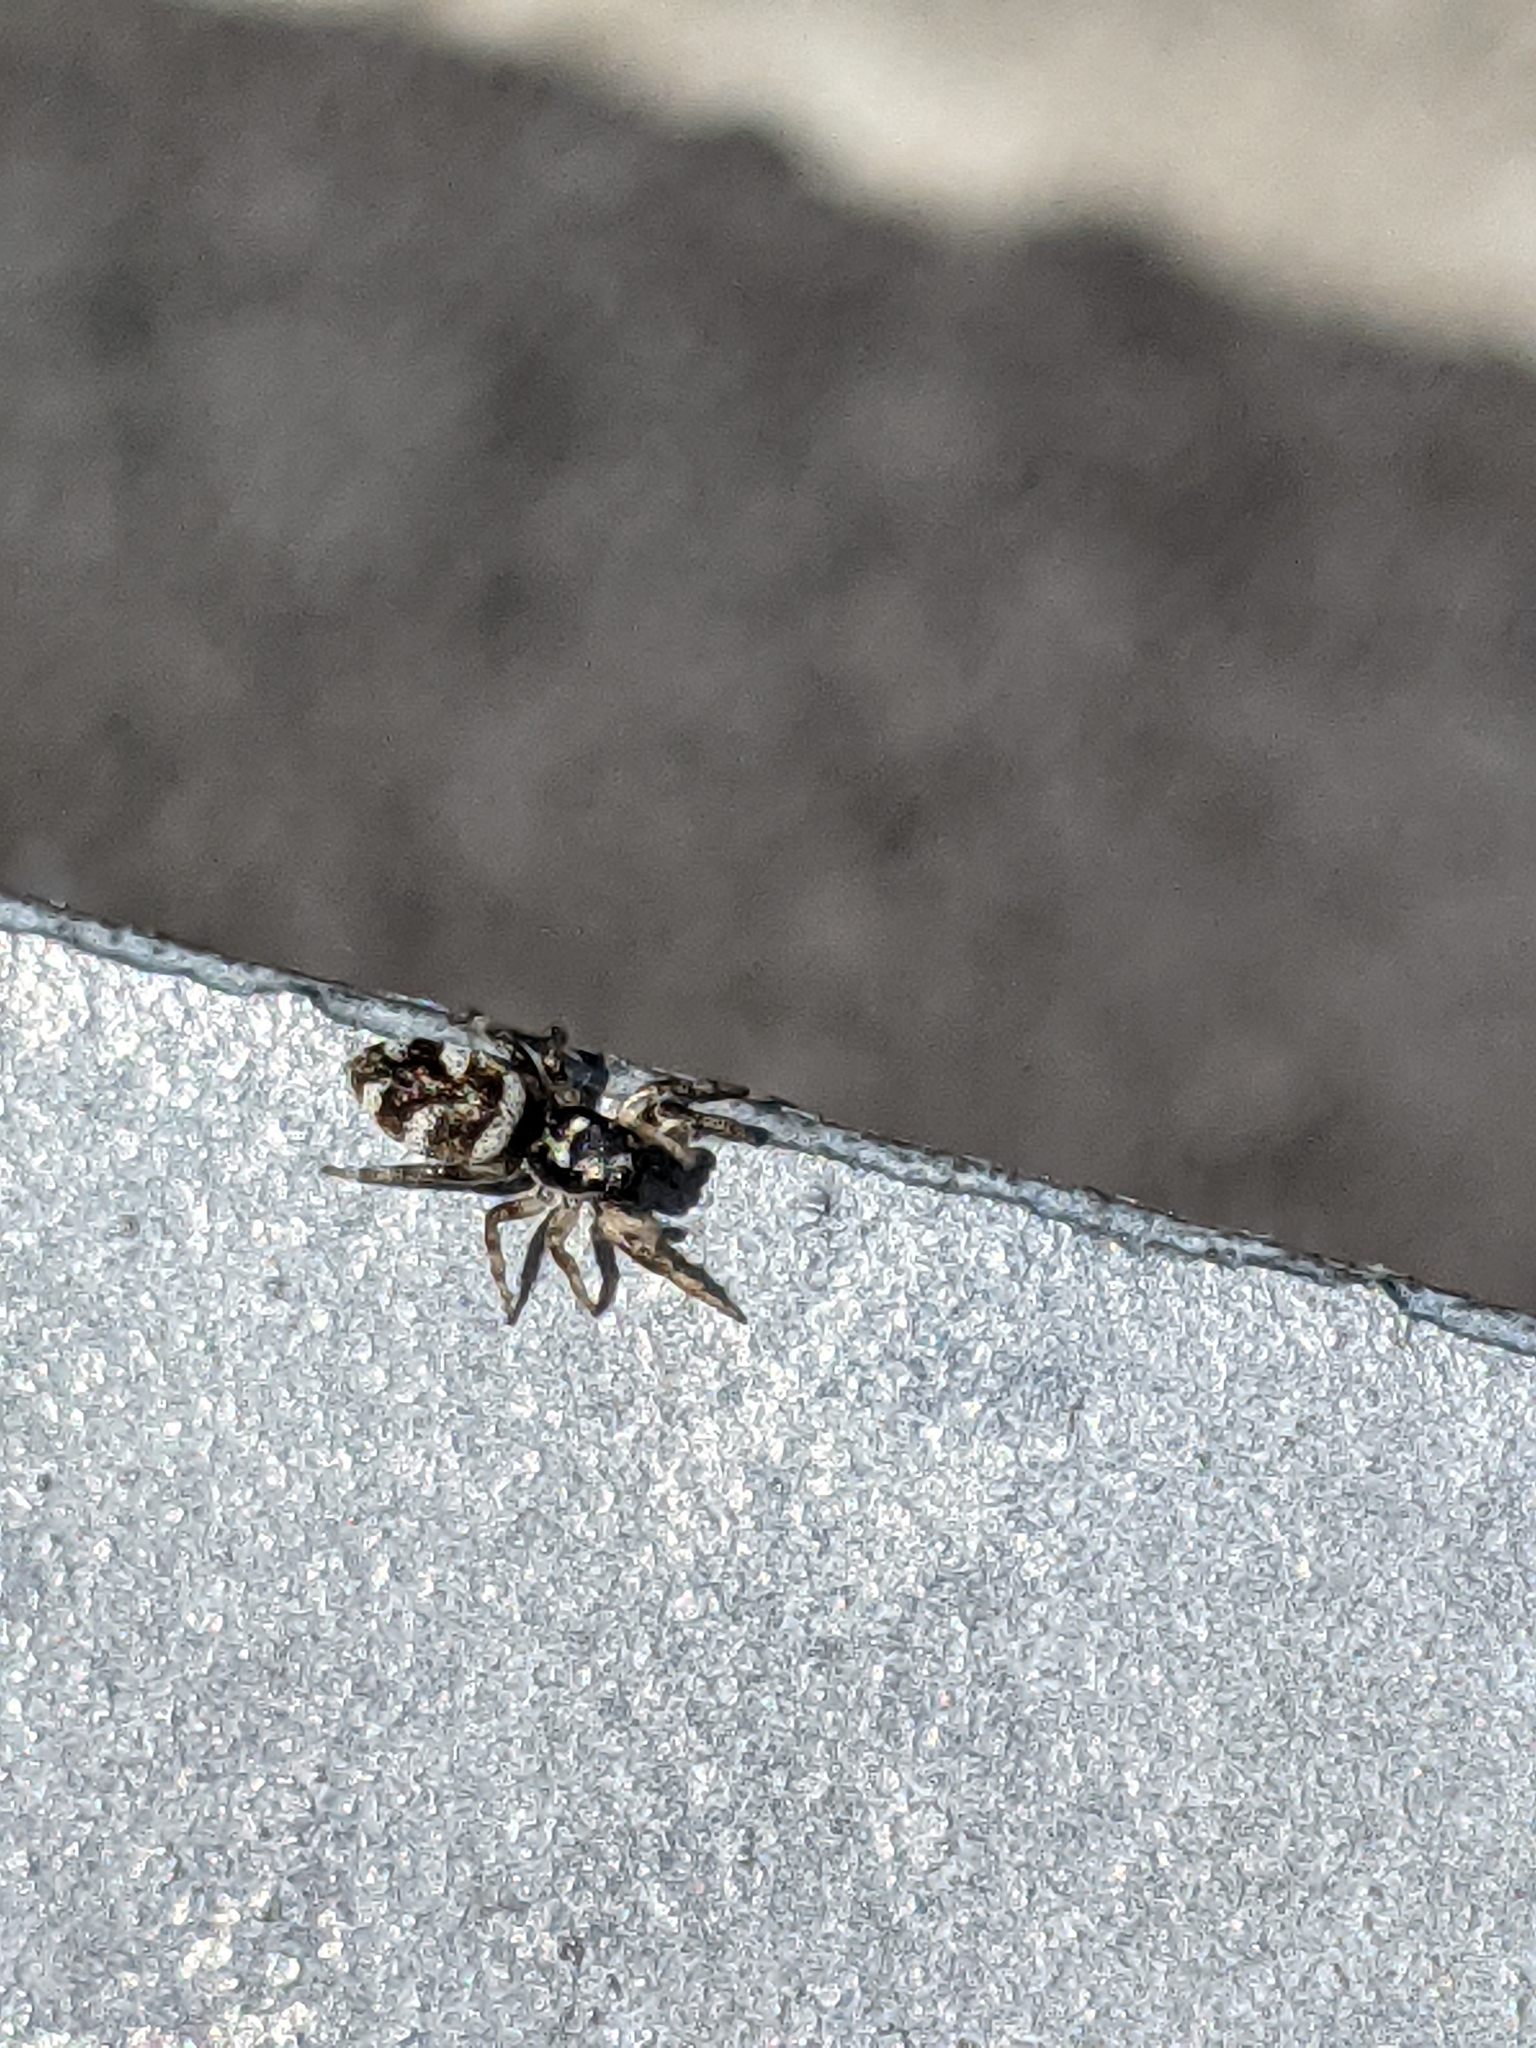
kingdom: Animalia
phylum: Arthropoda
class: Arachnida
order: Araneae
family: Salticidae
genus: Salticus
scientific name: Salticus scenicus
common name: Zebra jumper
